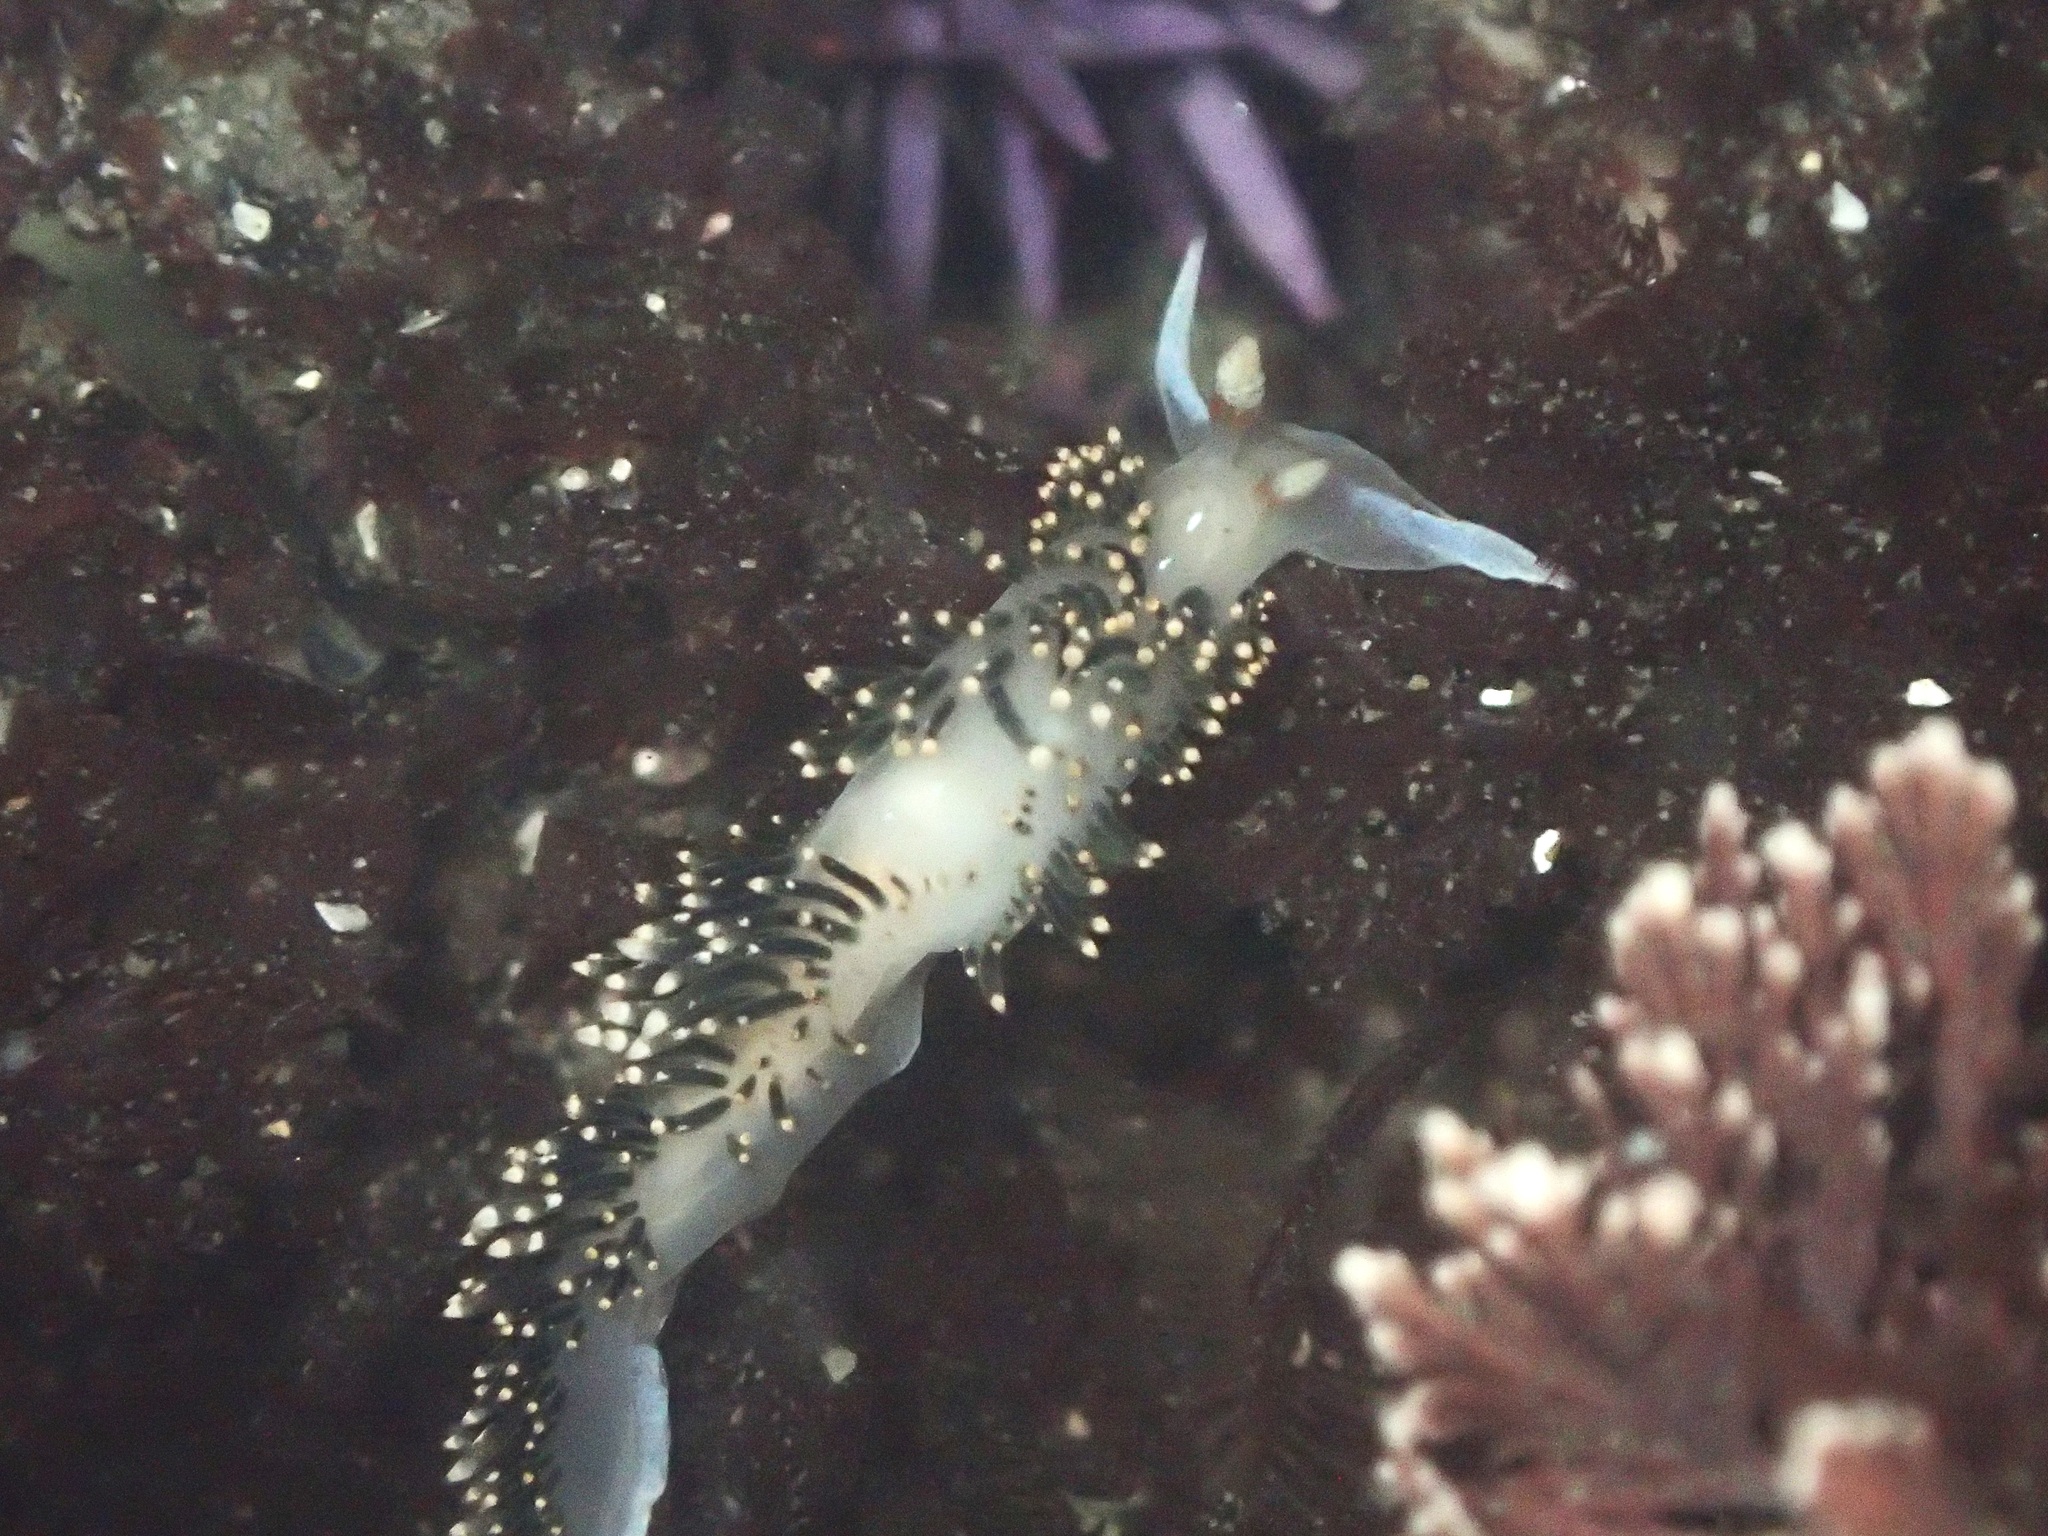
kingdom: Animalia
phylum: Mollusca
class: Gastropoda
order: Nudibranchia
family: Facelinidae
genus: Phidiana
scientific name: Phidiana hiltoni
